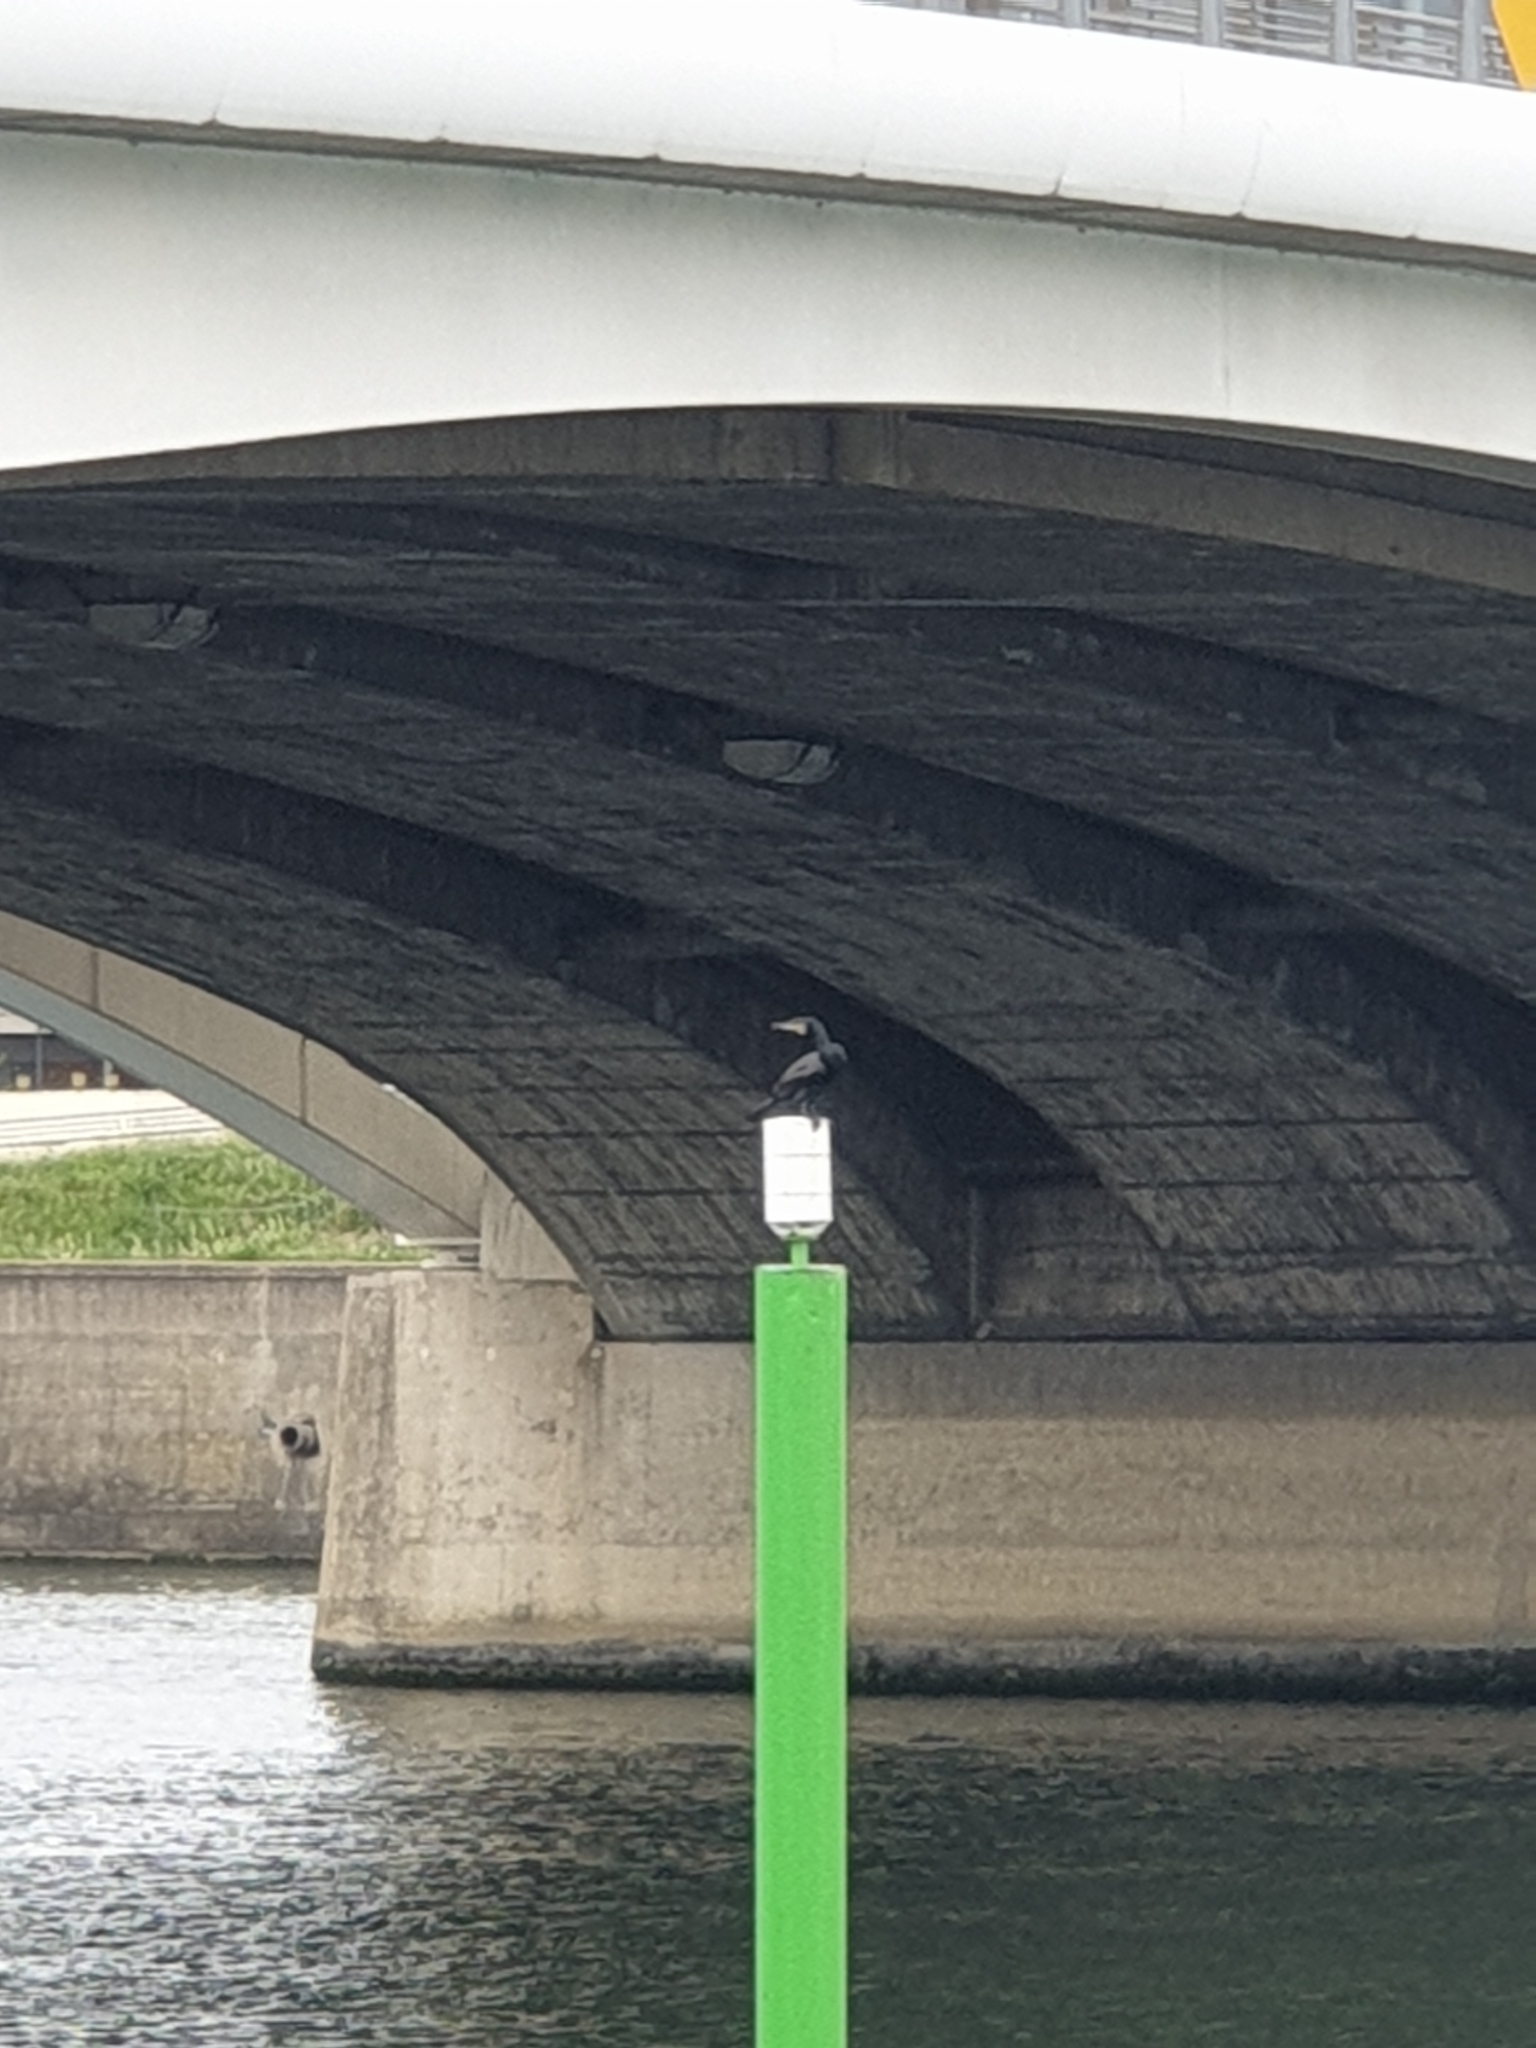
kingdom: Animalia
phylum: Chordata
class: Aves
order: Suliformes
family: Phalacrocoracidae
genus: Phalacrocorax
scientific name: Phalacrocorax carbo
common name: Great cormorant
